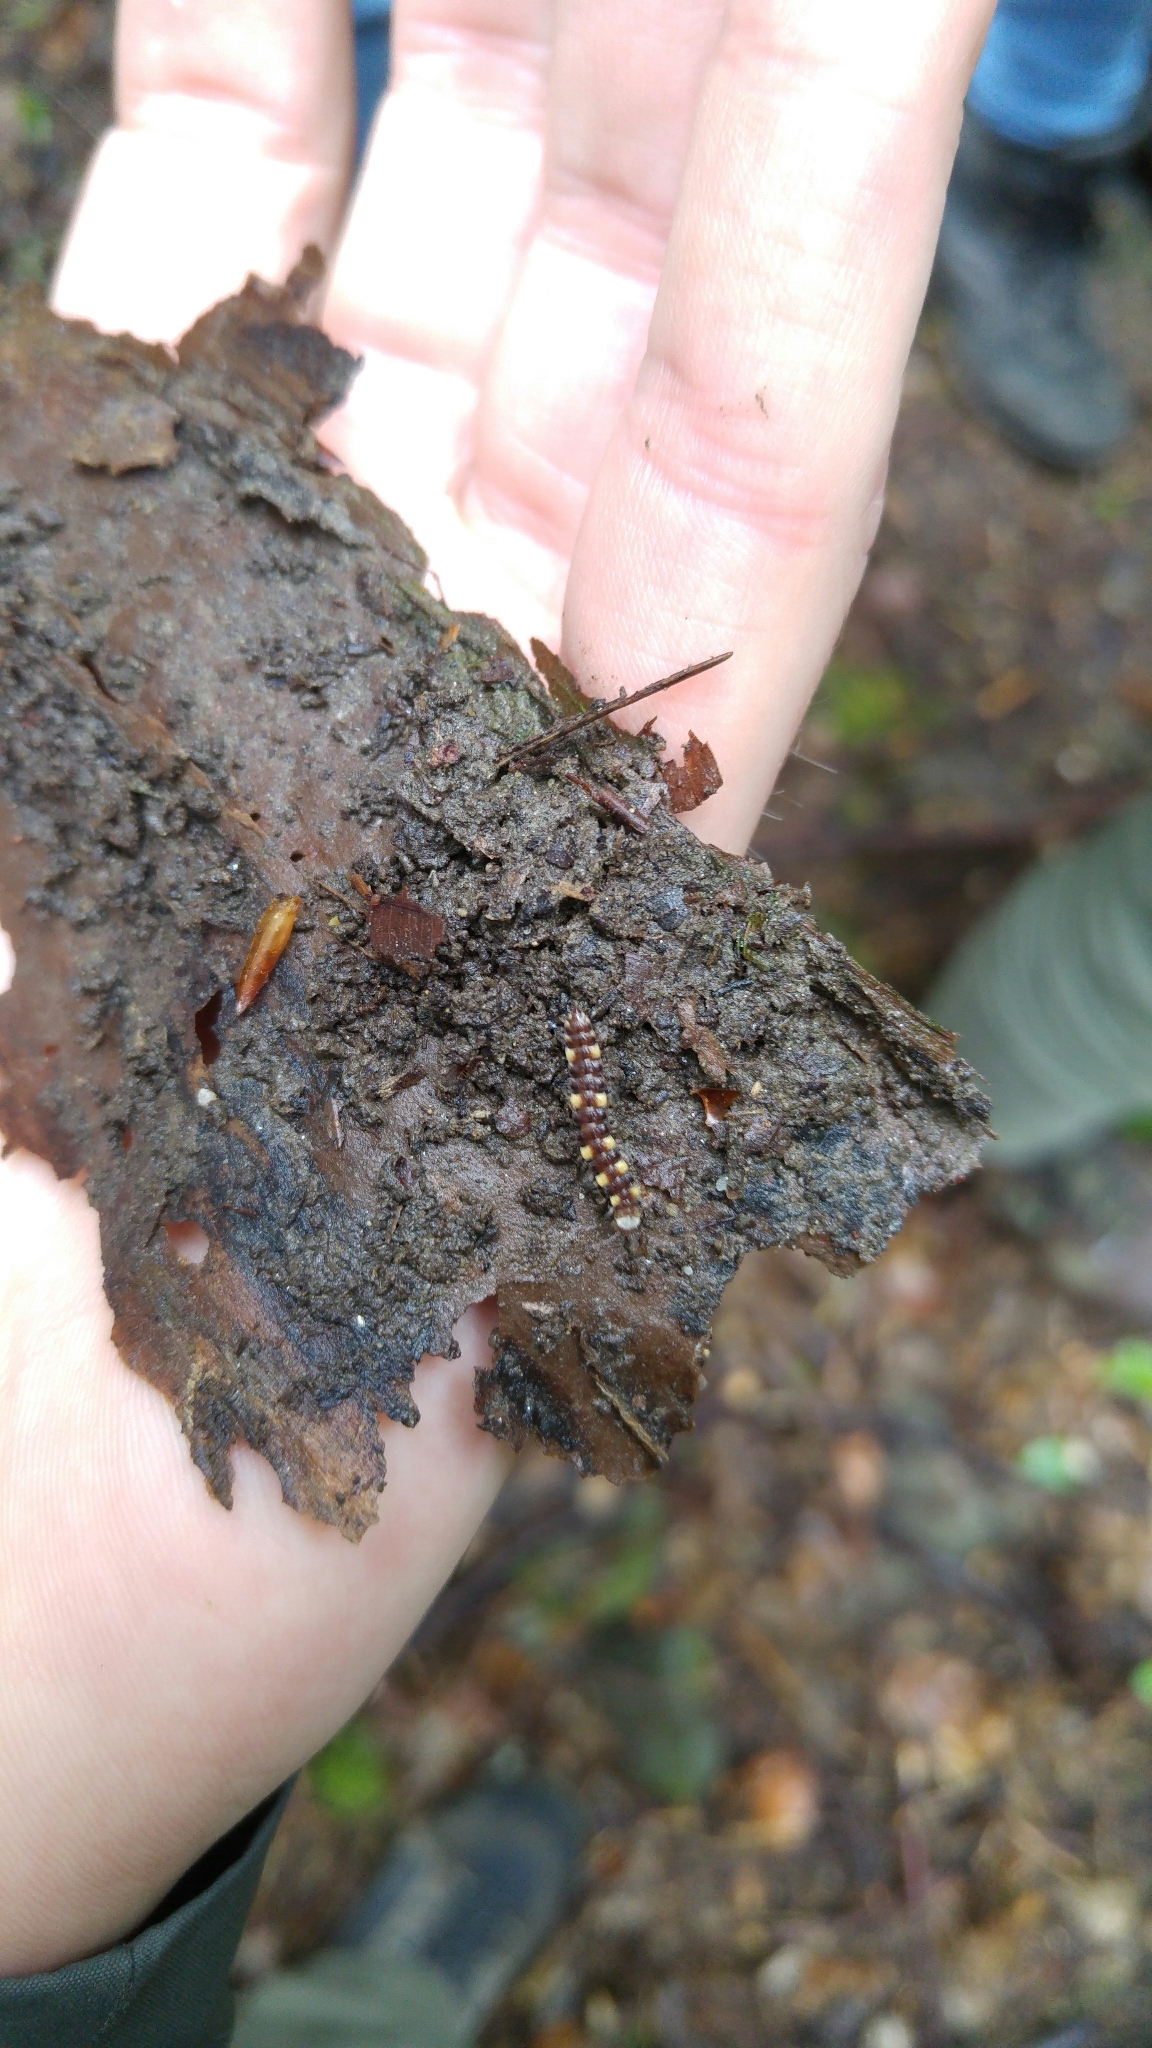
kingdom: Animalia
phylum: Arthropoda
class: Diplopoda
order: Polydesmida
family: Polydesmidae
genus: Polydesmus
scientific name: Polydesmus collaris
